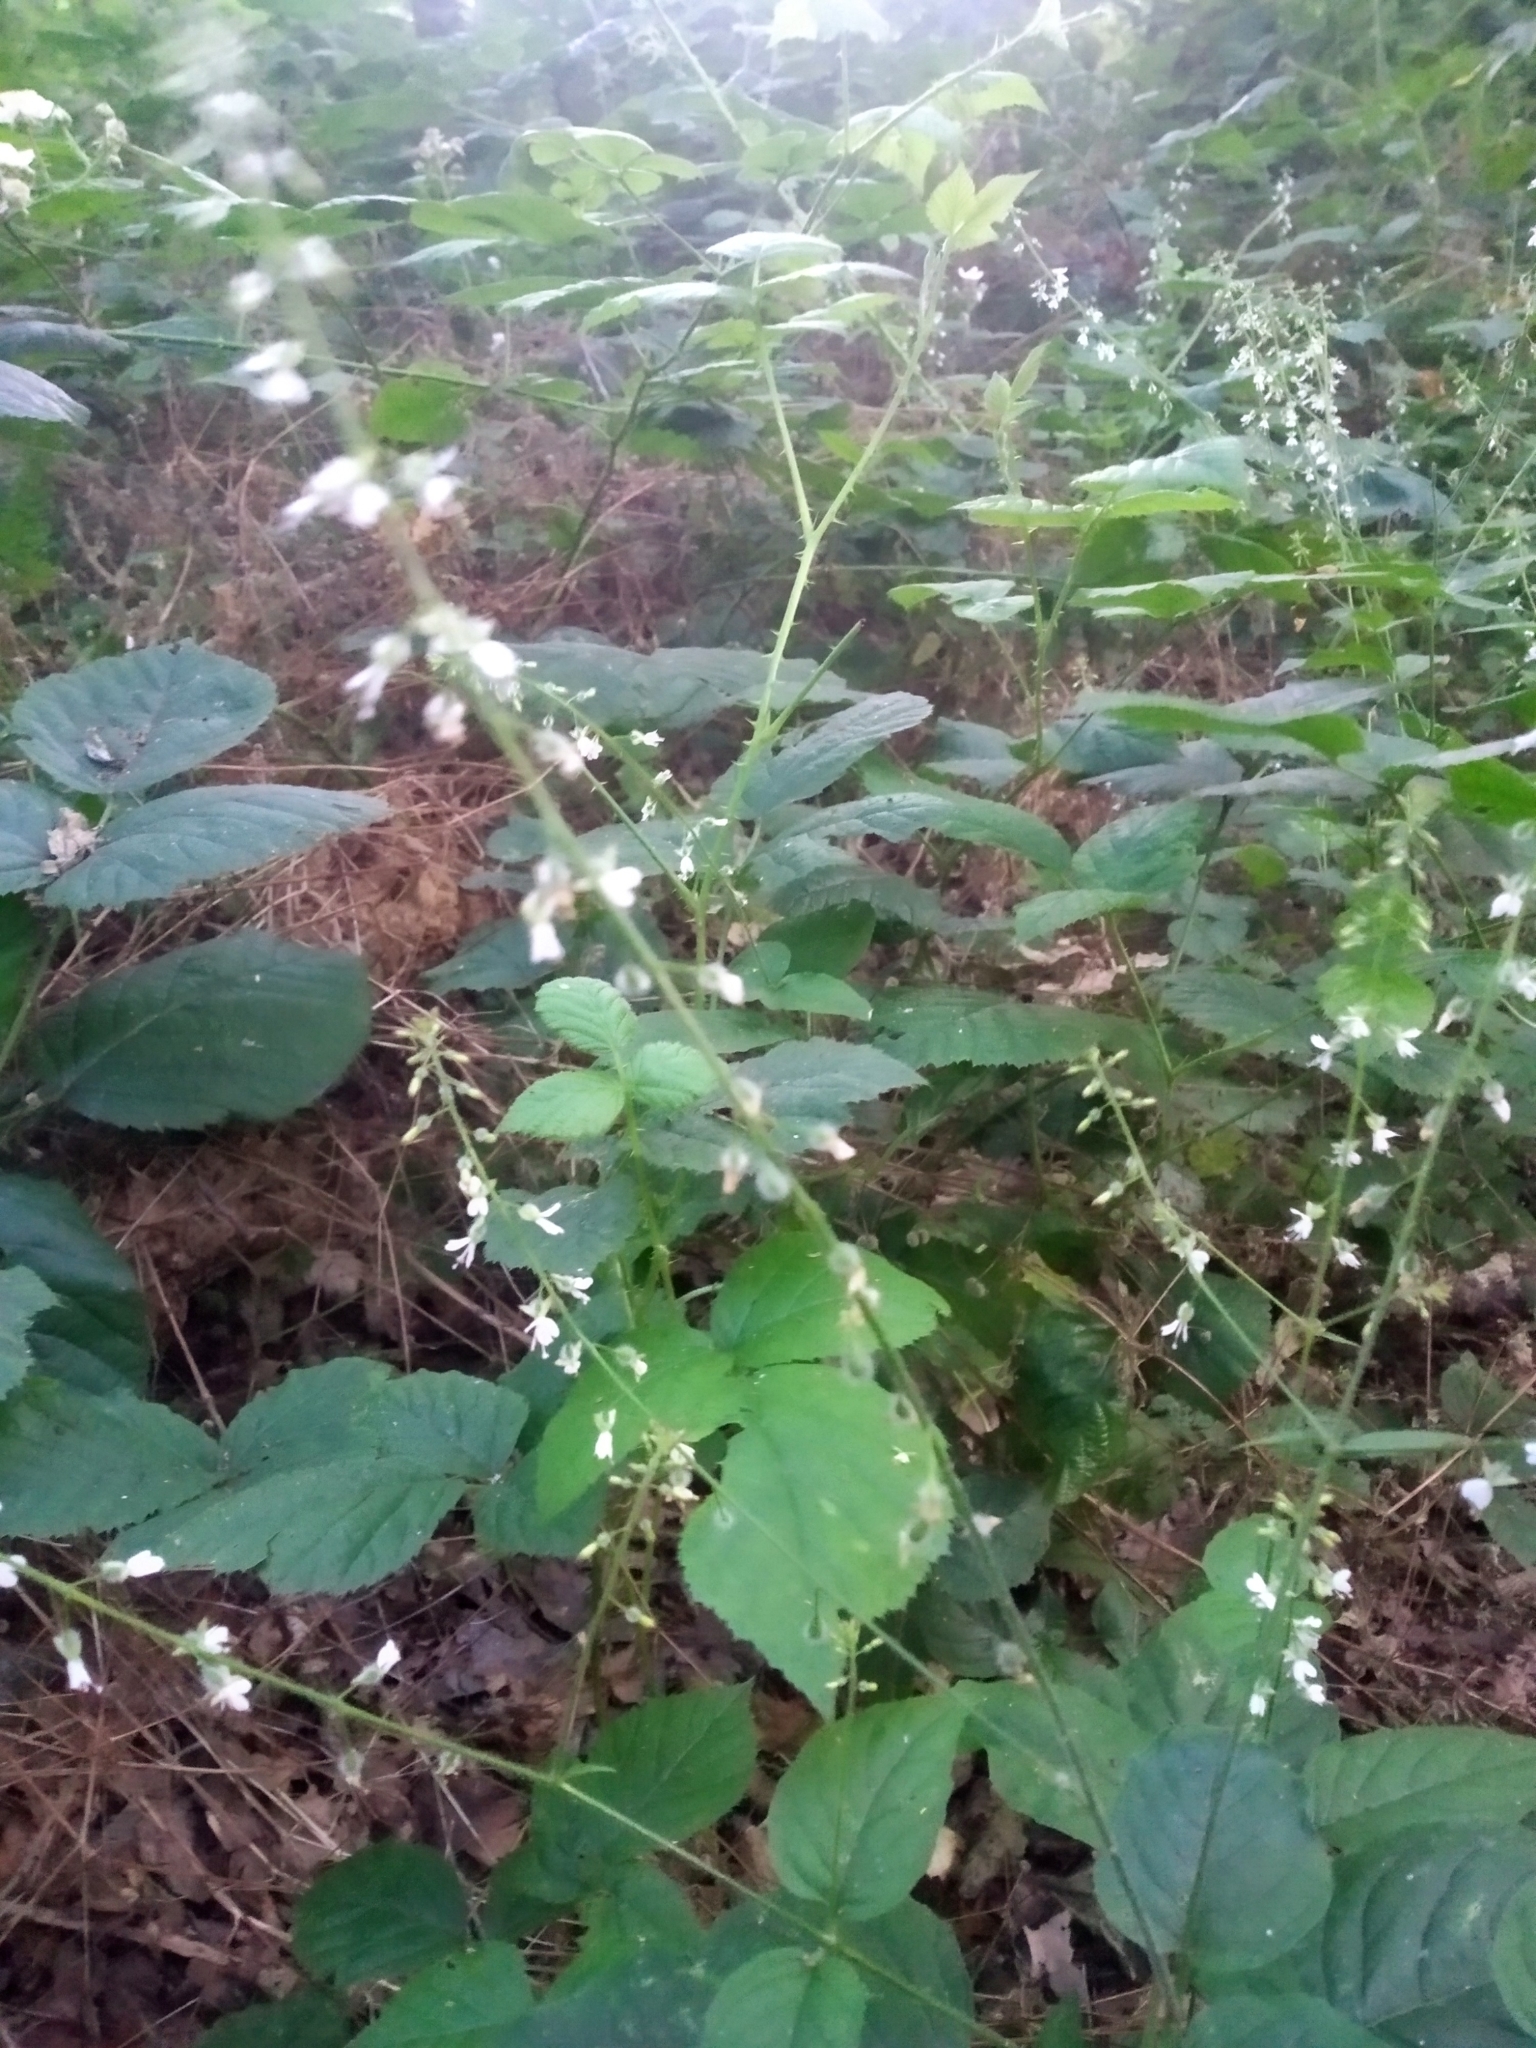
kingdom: Plantae
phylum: Tracheophyta
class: Magnoliopsida
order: Myrtales
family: Onagraceae
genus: Circaea
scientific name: Circaea lutetiana
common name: Enchanter's-nightshade
